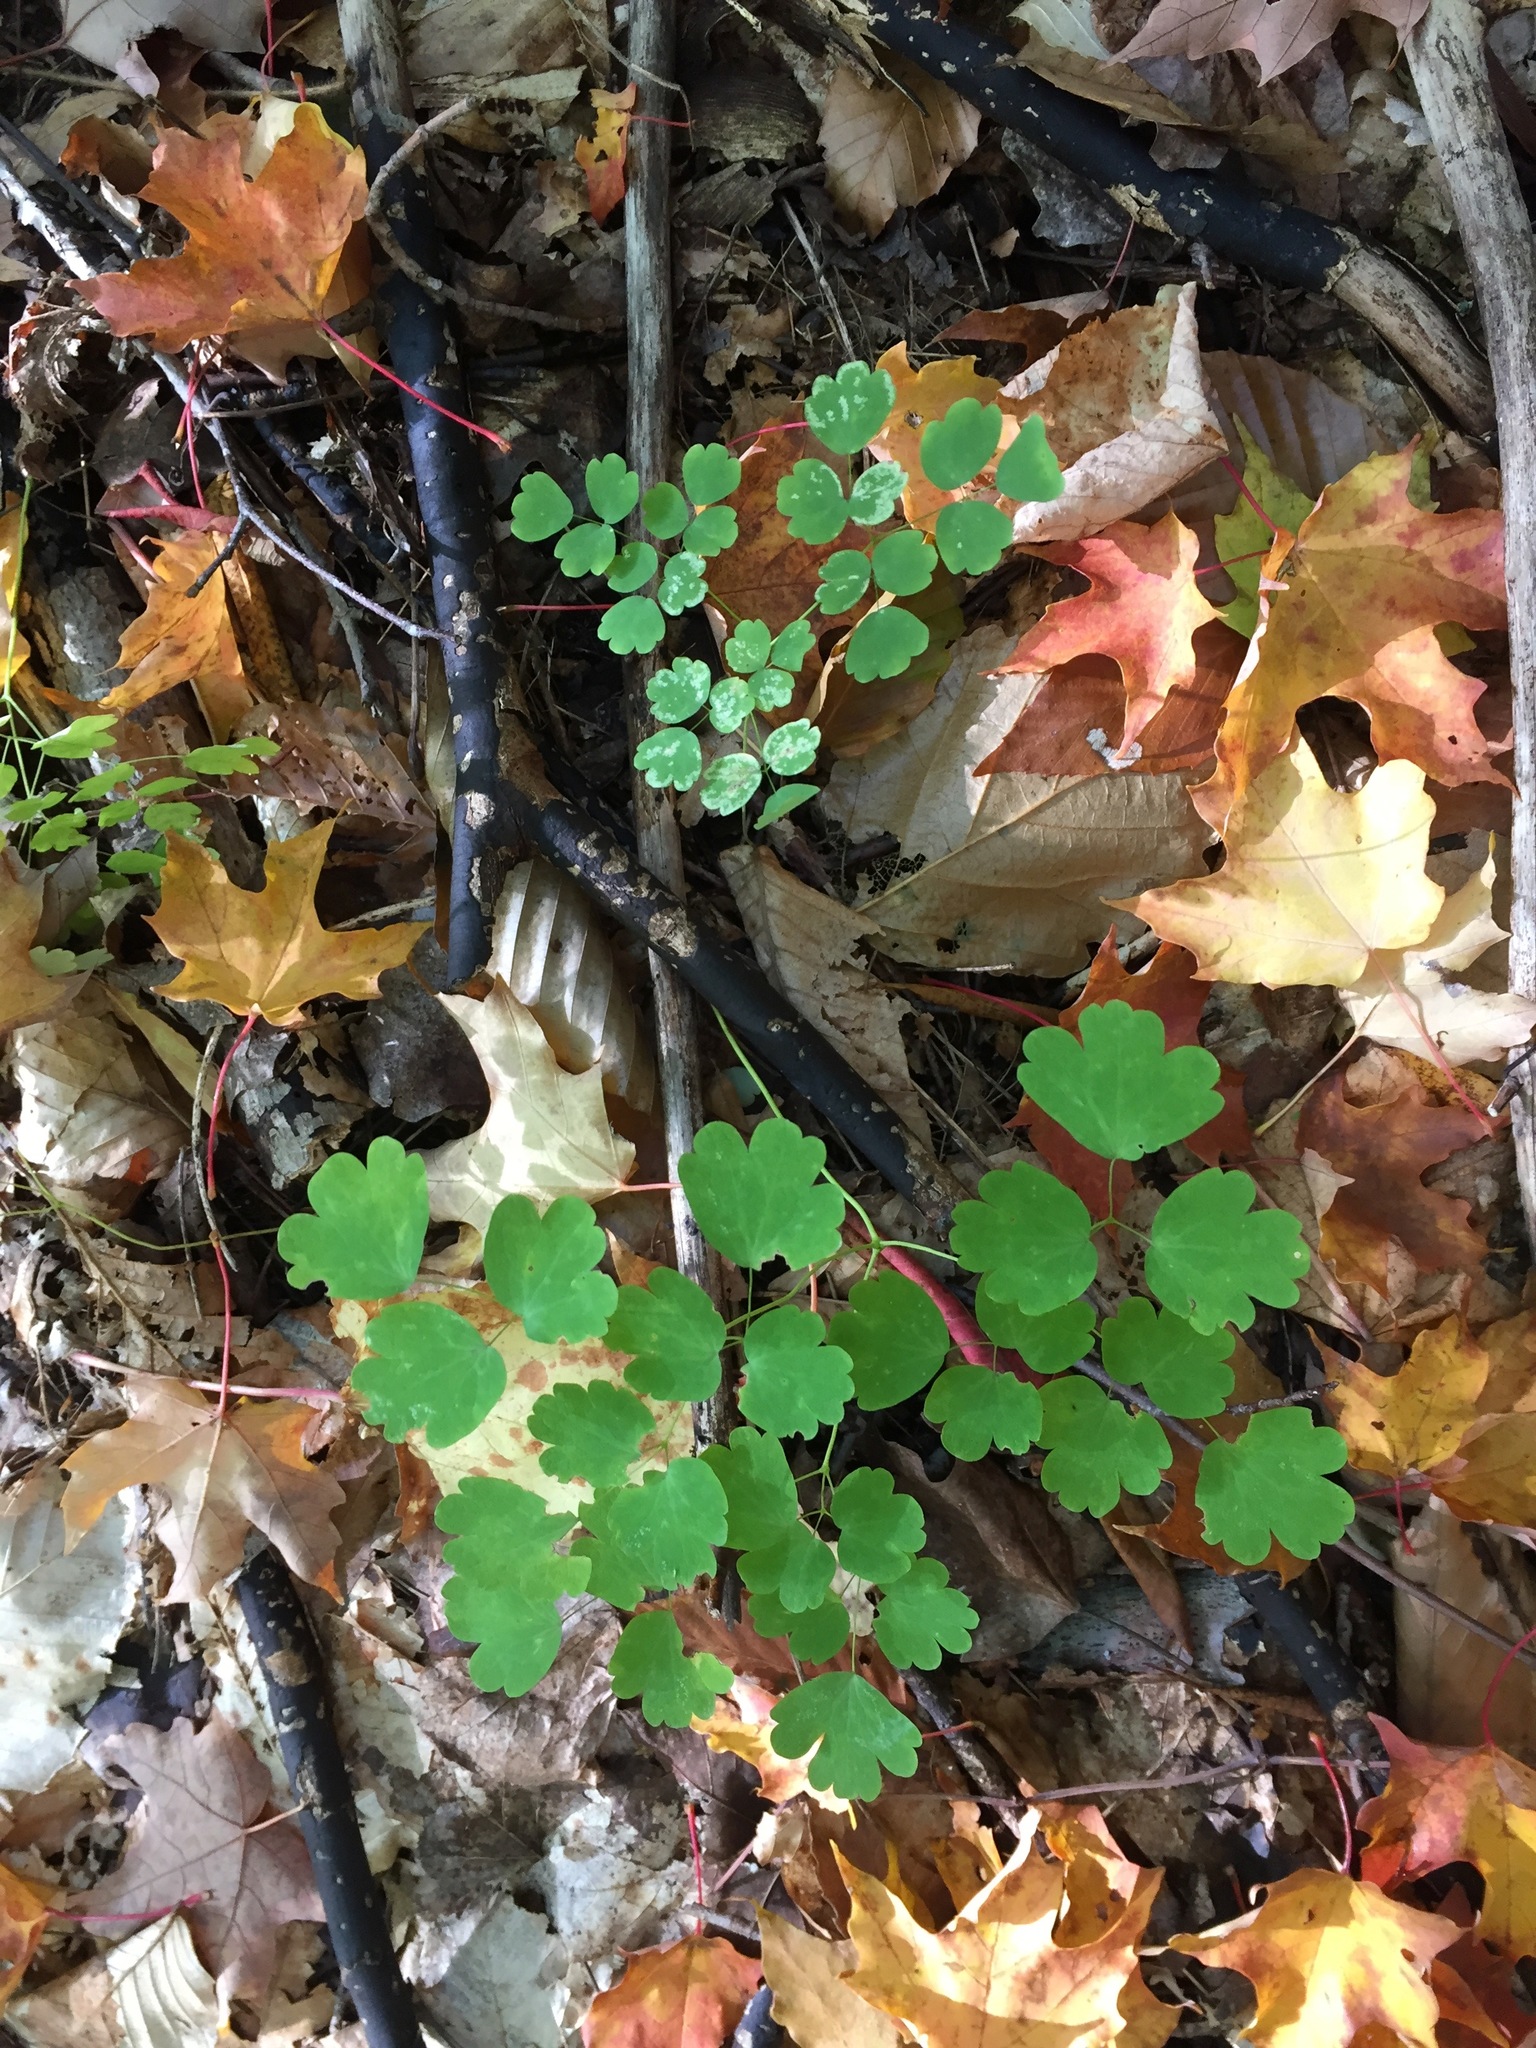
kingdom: Plantae
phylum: Tracheophyta
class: Magnoliopsida
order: Ranunculales
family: Ranunculaceae
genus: Thalictrum
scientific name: Thalictrum dioicum
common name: Early meadow-rue
